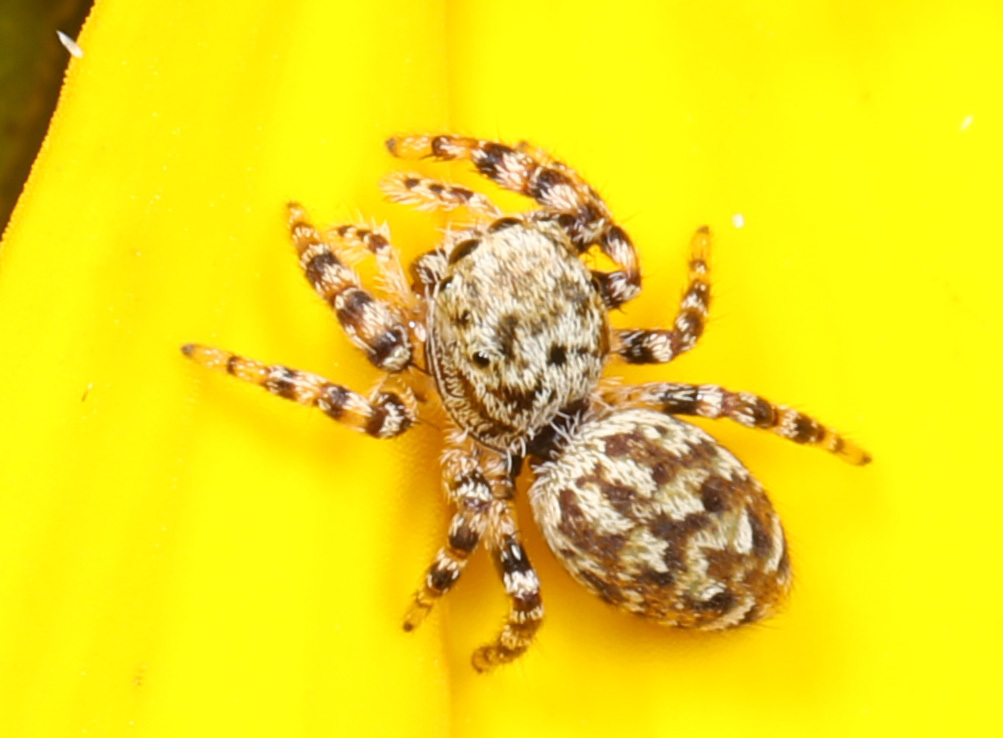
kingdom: Animalia
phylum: Arthropoda
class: Arachnida
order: Araneae
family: Salticidae
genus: Pelegrina
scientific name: Pelegrina galathea
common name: Jumping spiders
